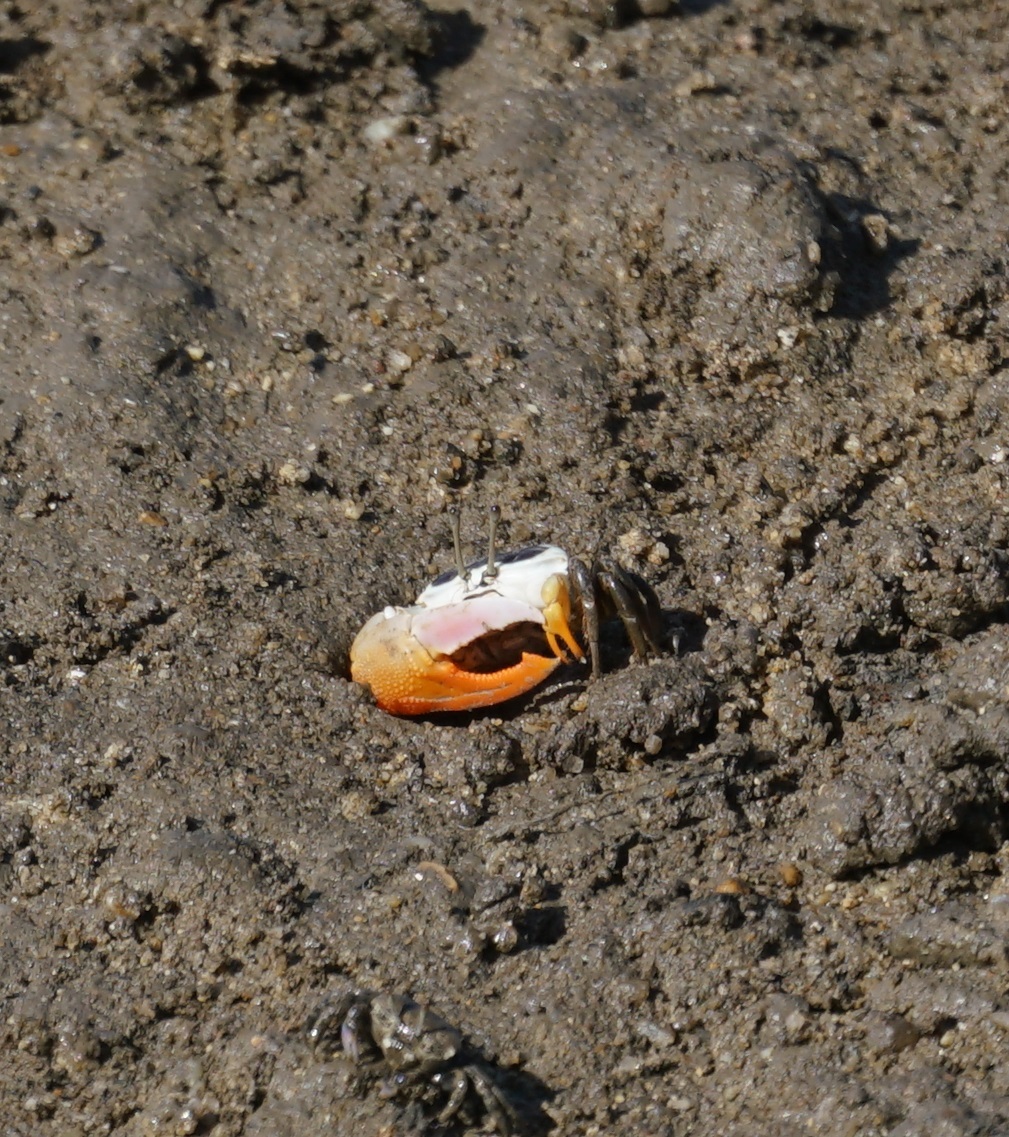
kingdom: Animalia
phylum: Arthropoda
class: Malacostraca
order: Decapoda
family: Ocypodidae
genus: Gelasimus
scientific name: Gelasimus vomeris
